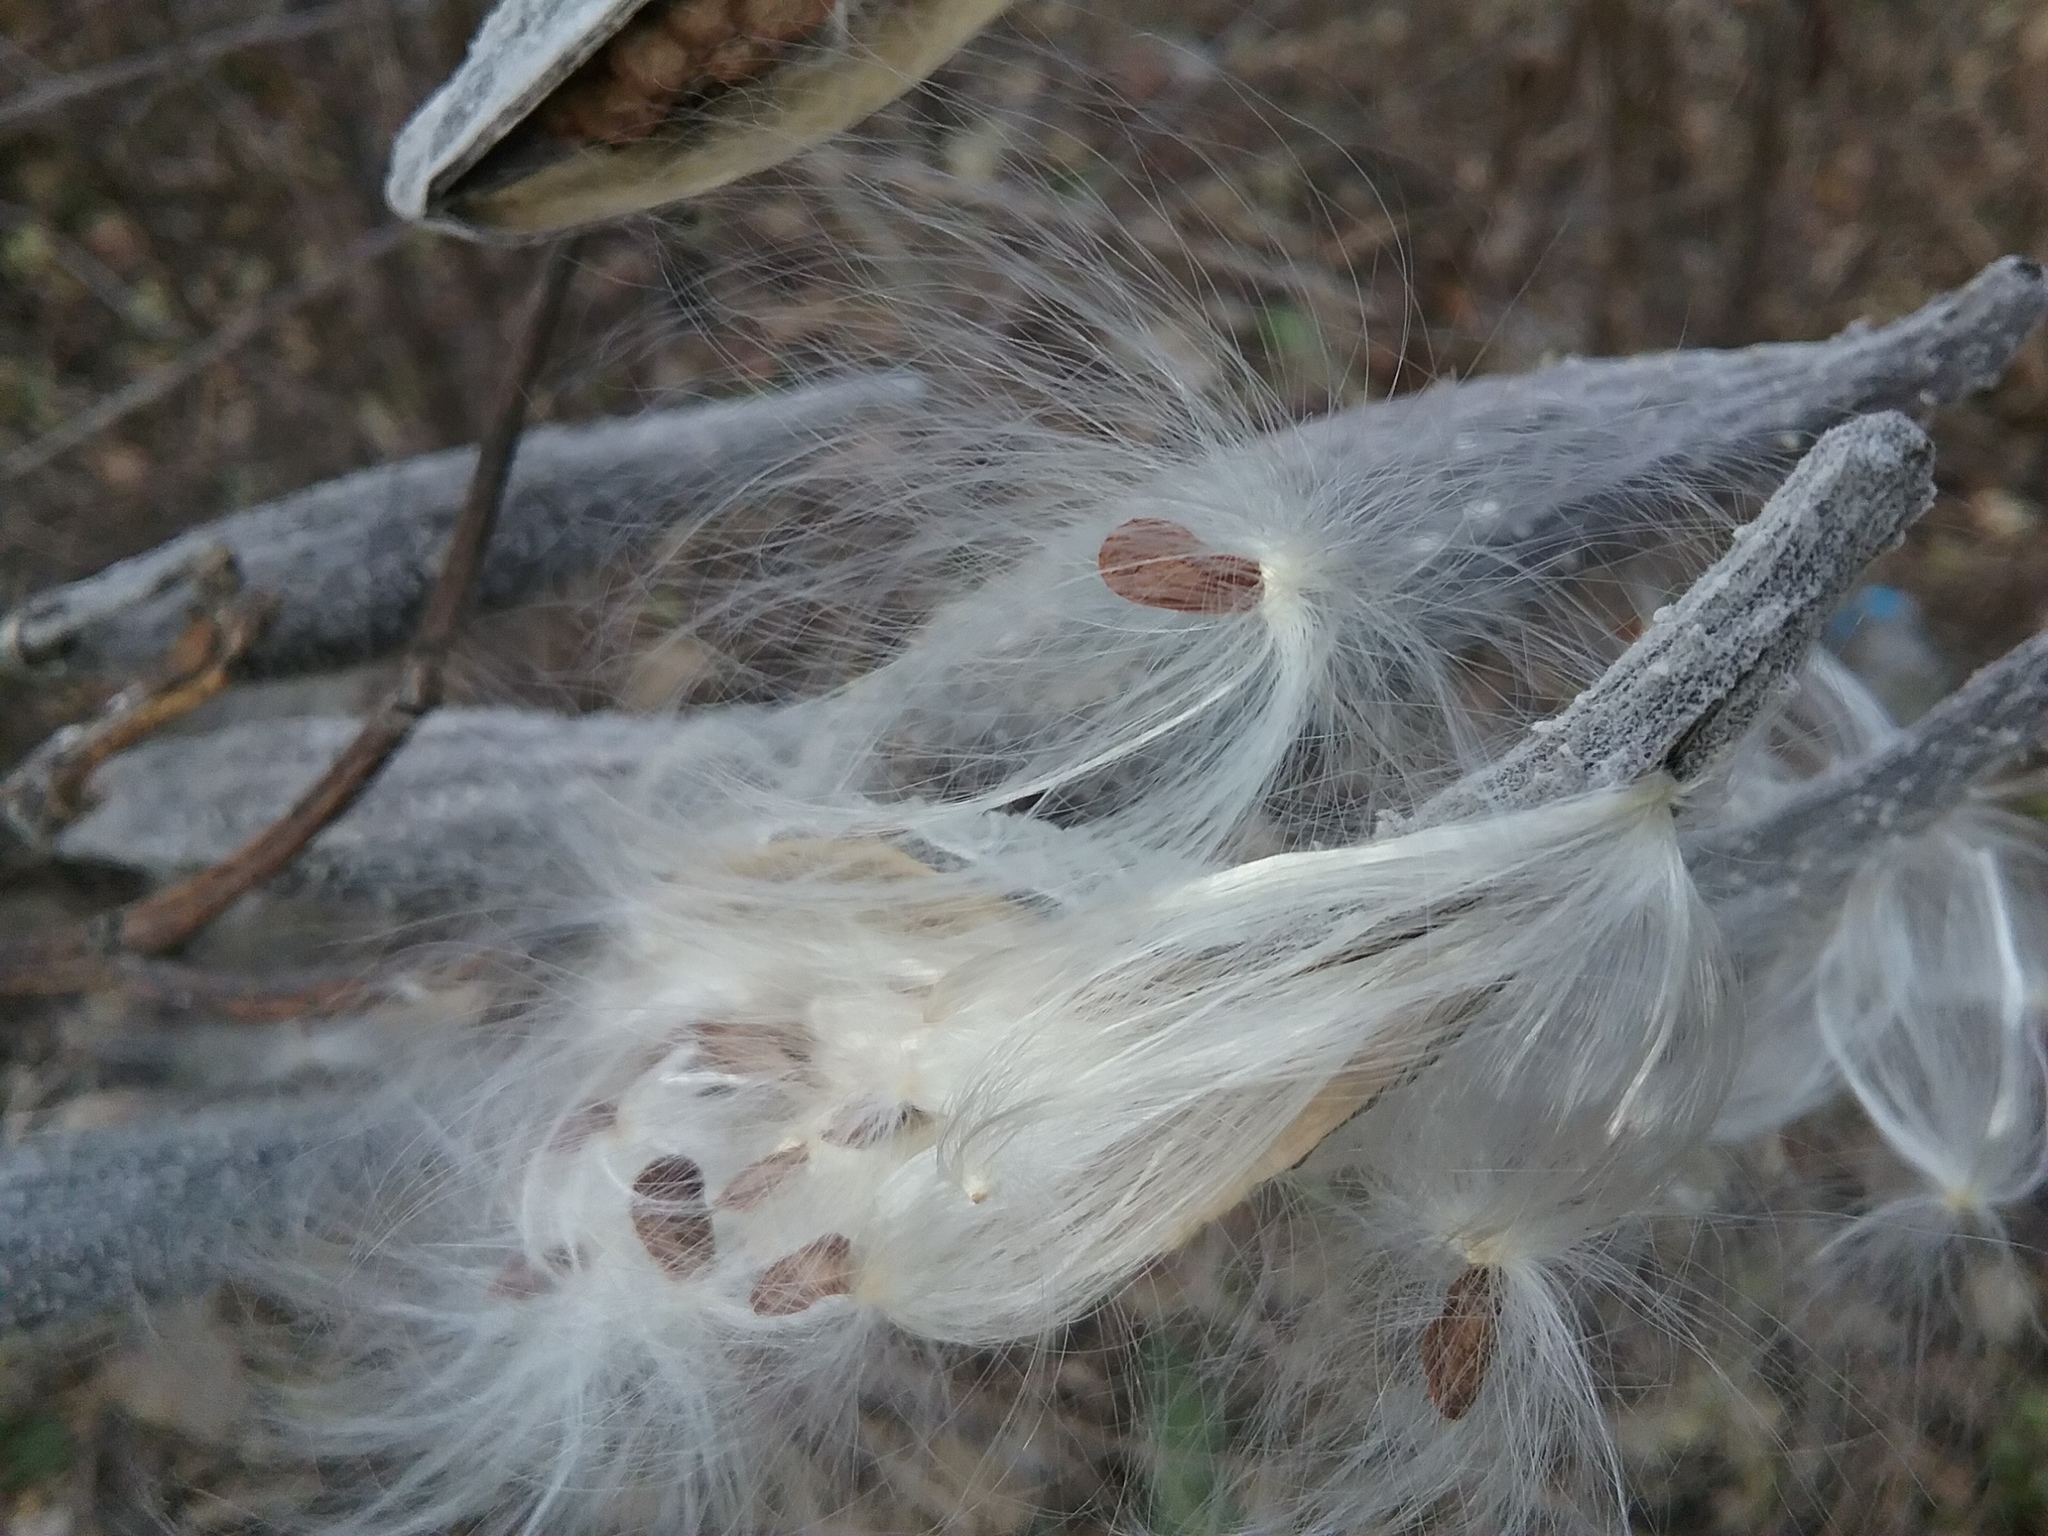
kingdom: Plantae
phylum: Tracheophyta
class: Magnoliopsida
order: Gentianales
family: Apocynaceae
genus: Asclepias
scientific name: Asclepias syriaca
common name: Common milkweed
